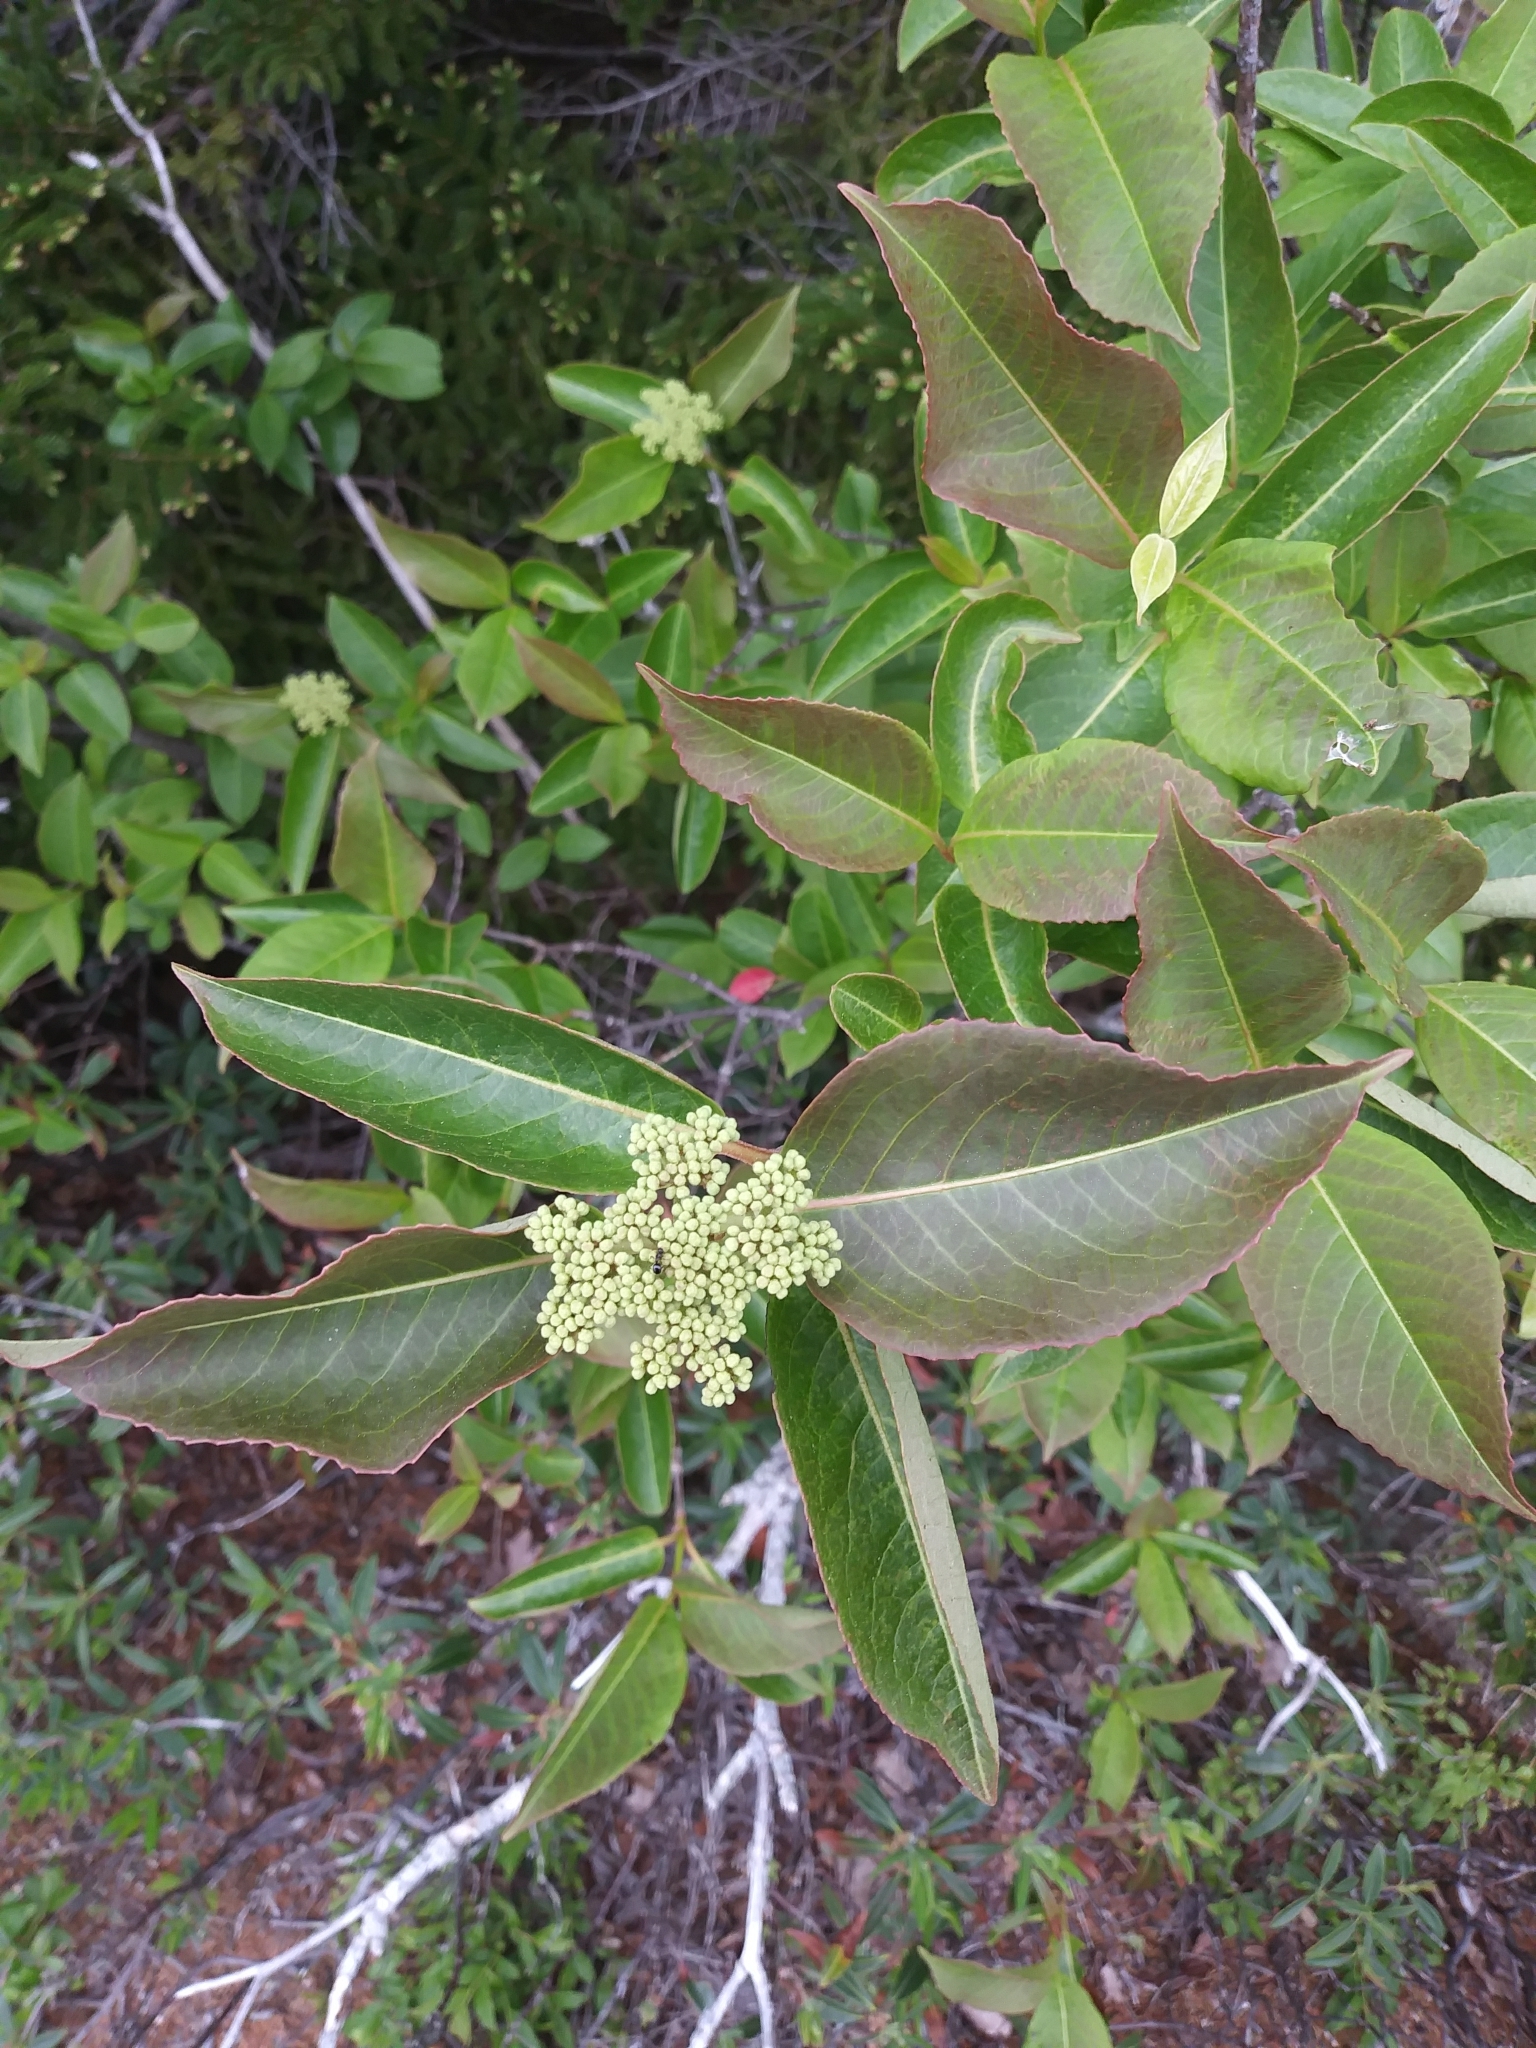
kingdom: Plantae
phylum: Tracheophyta
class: Magnoliopsida
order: Dipsacales
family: Viburnaceae
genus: Viburnum
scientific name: Viburnum cassinoides
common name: Swamp haw
